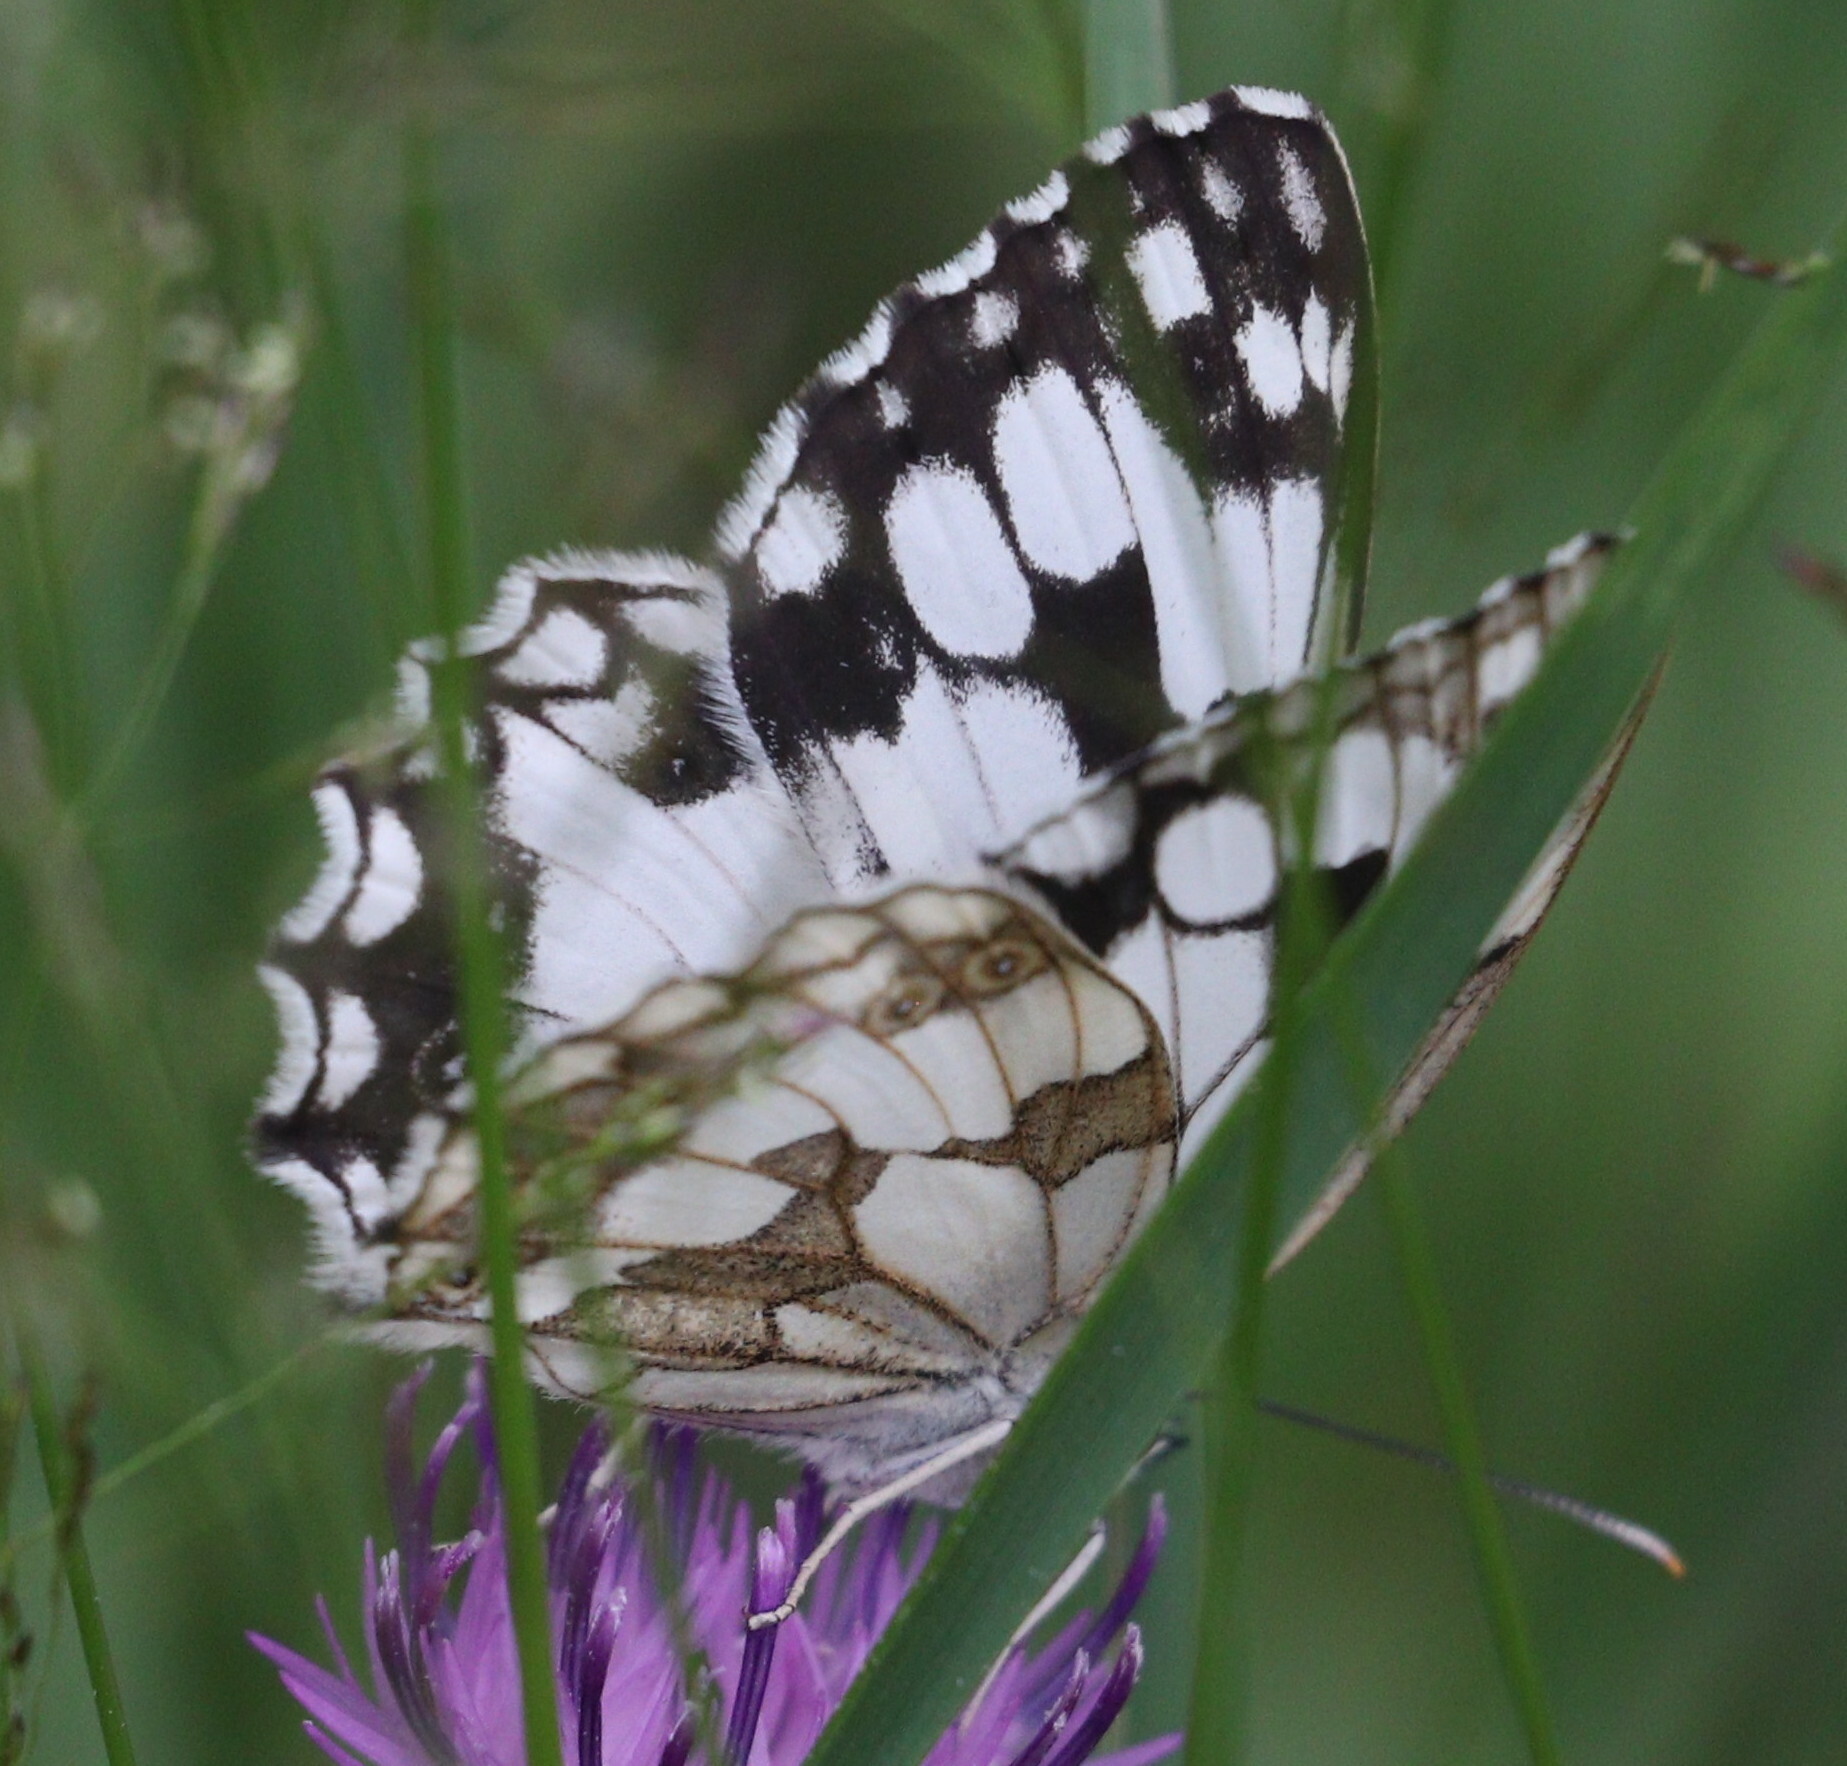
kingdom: Animalia
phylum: Arthropoda
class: Insecta
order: Lepidoptera
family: Nymphalidae
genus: Melanargia
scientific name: Melanargia lachesis
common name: Iberian marbled white
